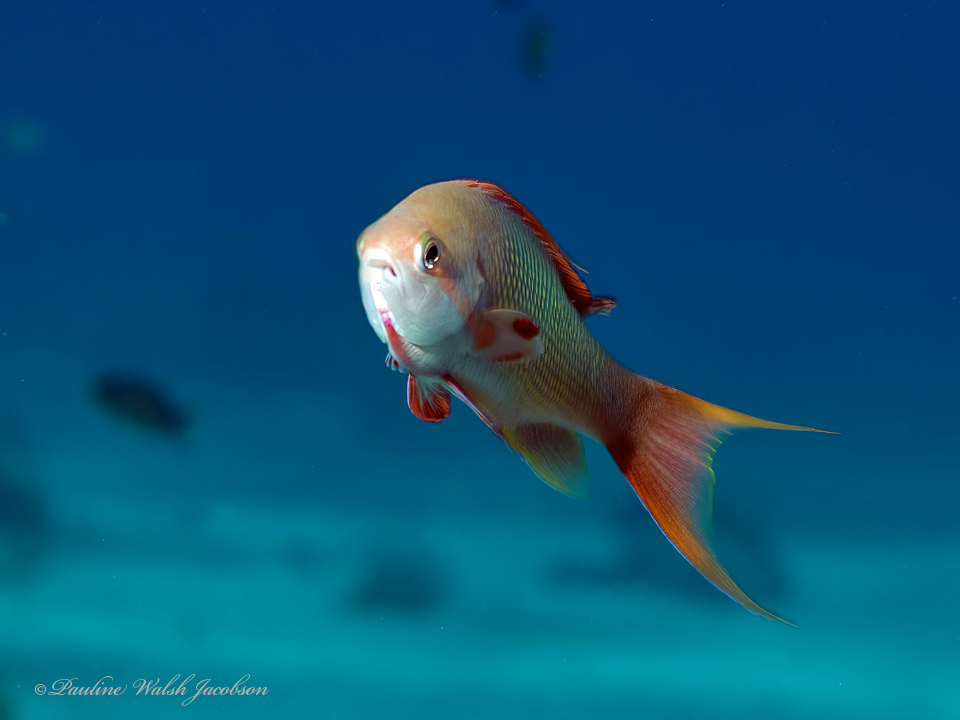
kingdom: Animalia
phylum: Chordata
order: Perciformes
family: Serranidae
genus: Pseudanthias
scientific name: Pseudanthias squamipinnis
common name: Scalefin anthias
